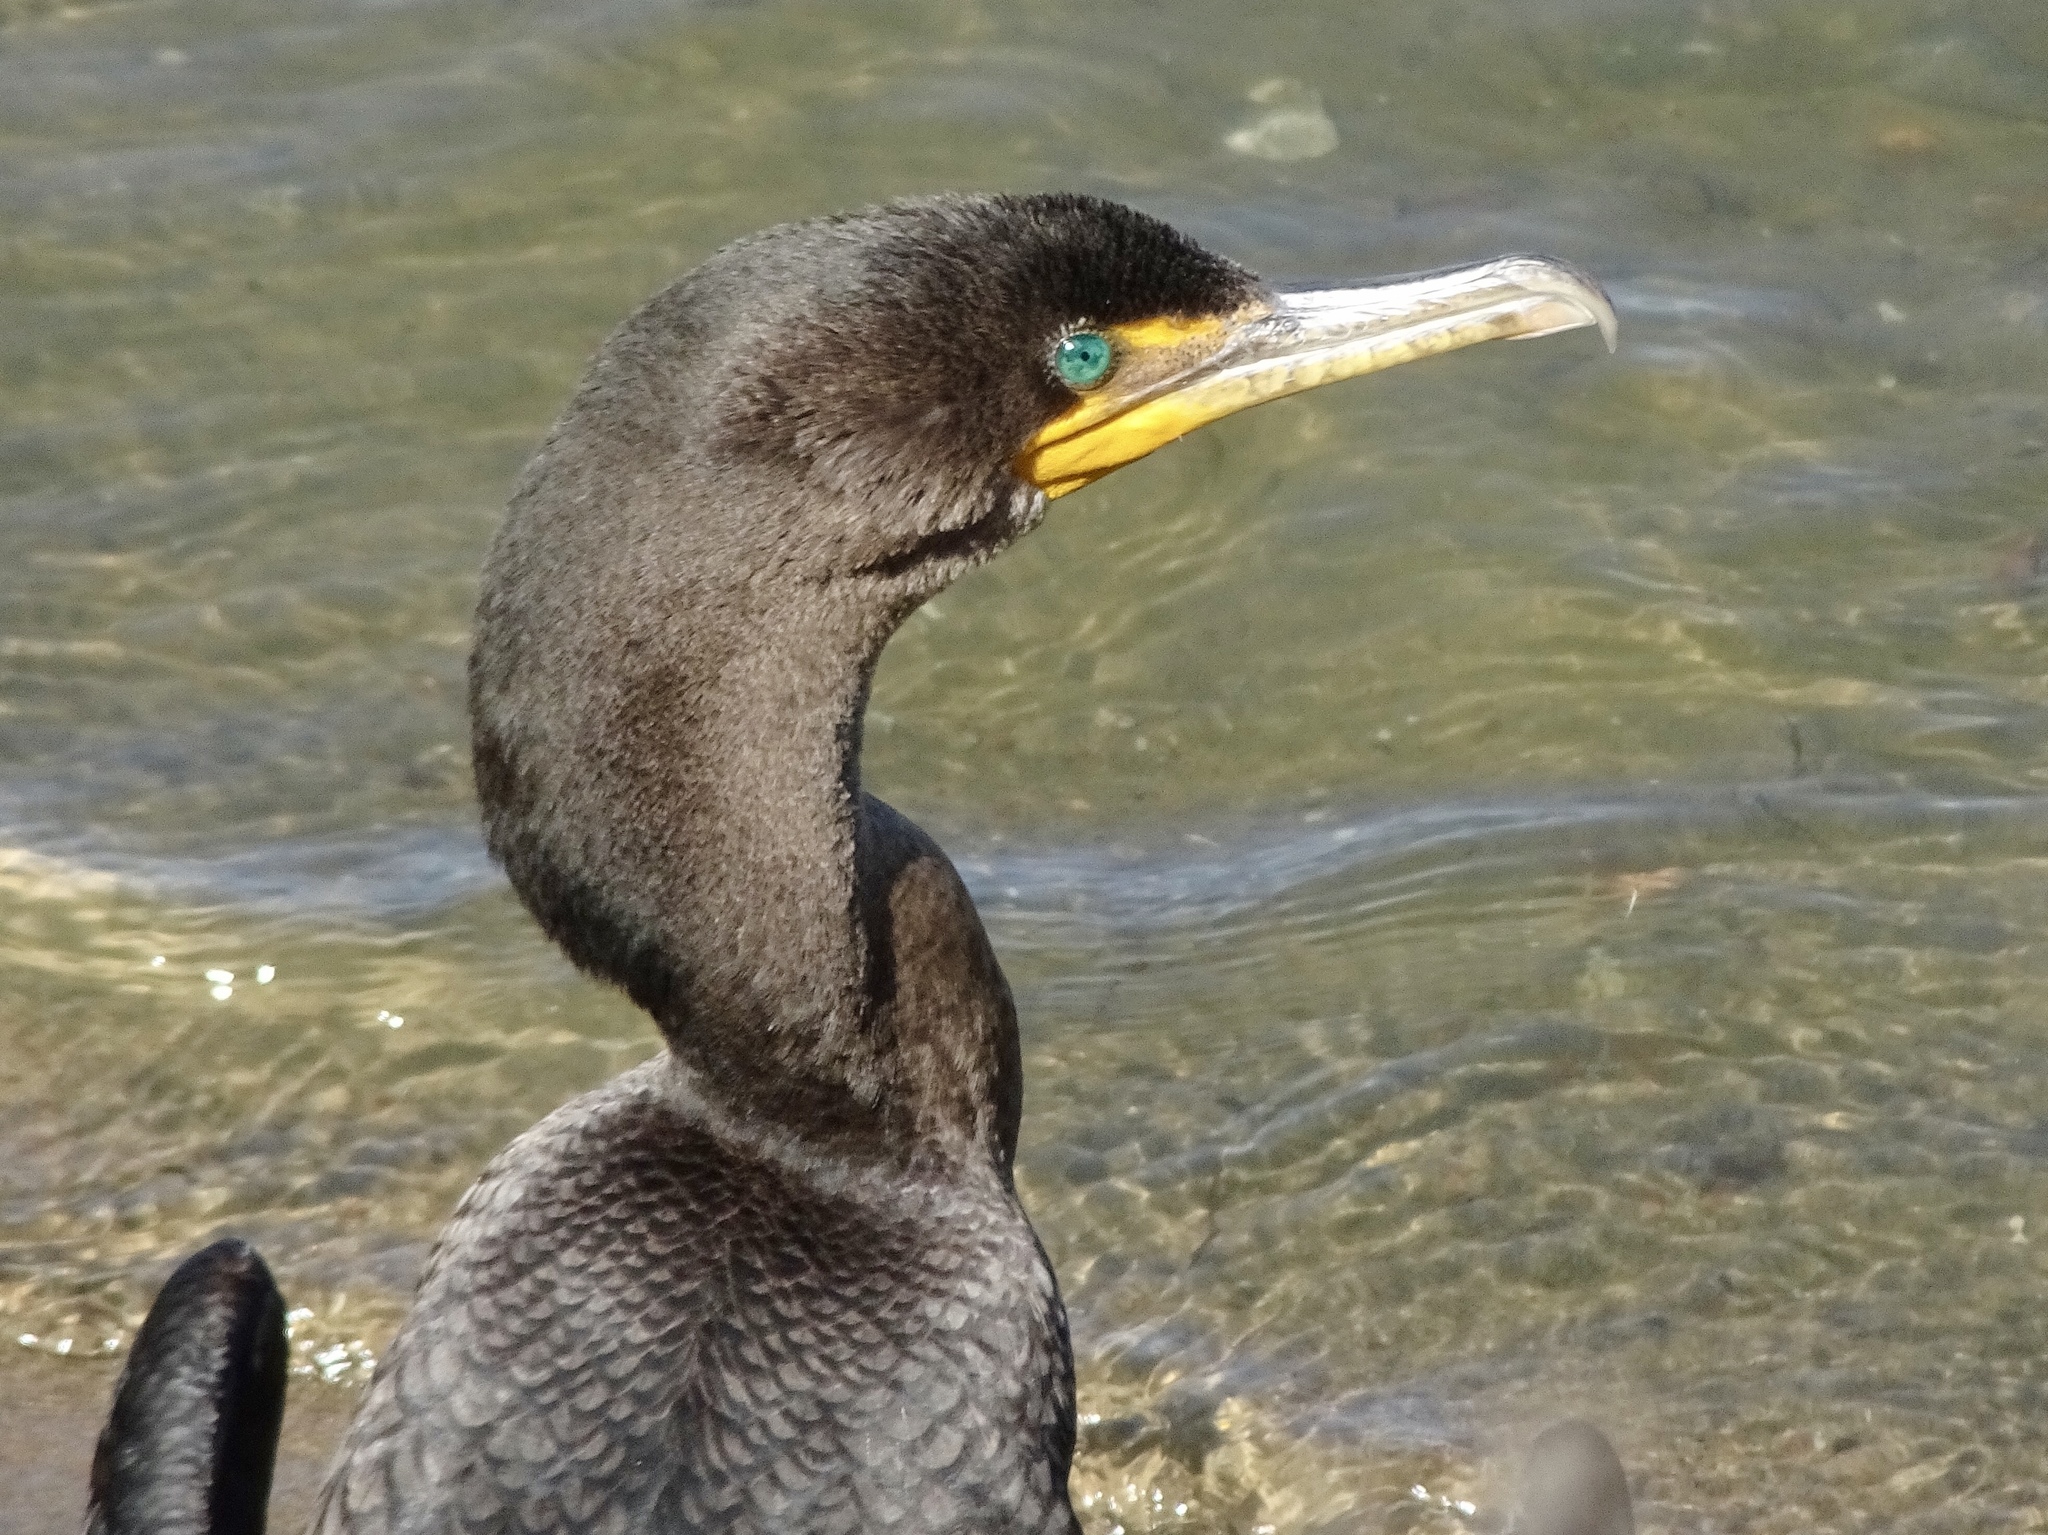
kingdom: Animalia
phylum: Chordata
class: Aves
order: Suliformes
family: Phalacrocoracidae
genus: Phalacrocorax
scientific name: Phalacrocorax auritus
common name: Double-crested cormorant
